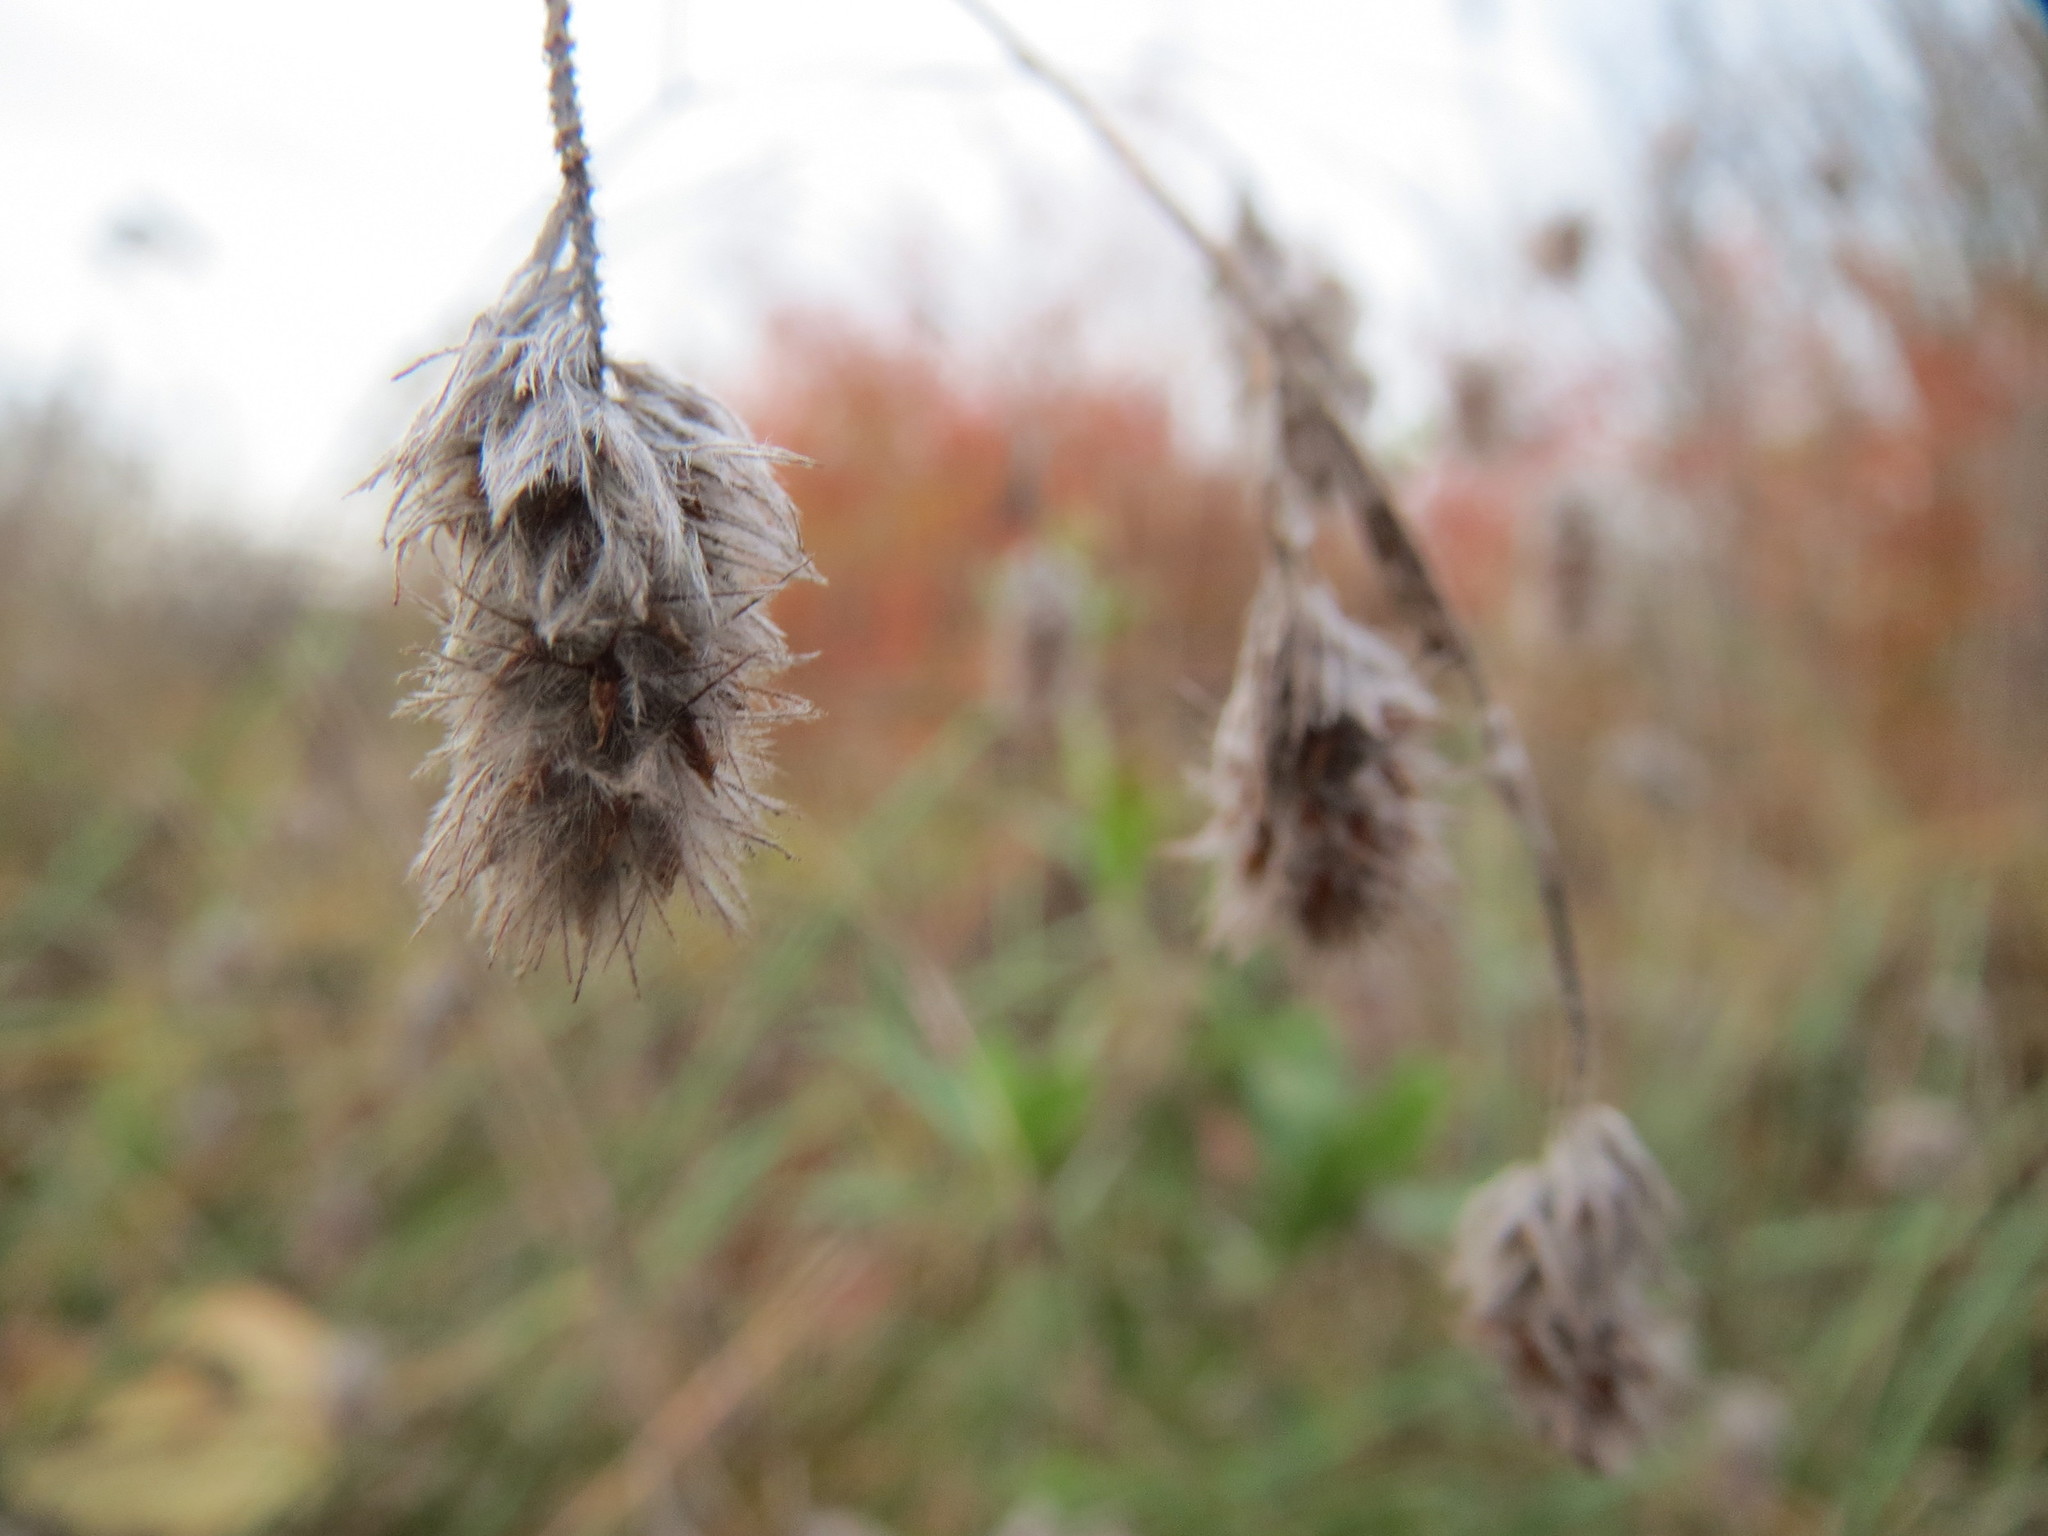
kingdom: Plantae
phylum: Tracheophyta
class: Magnoliopsida
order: Fabales
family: Fabaceae
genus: Trifolium
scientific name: Trifolium arvense
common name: Hare's-foot clover
